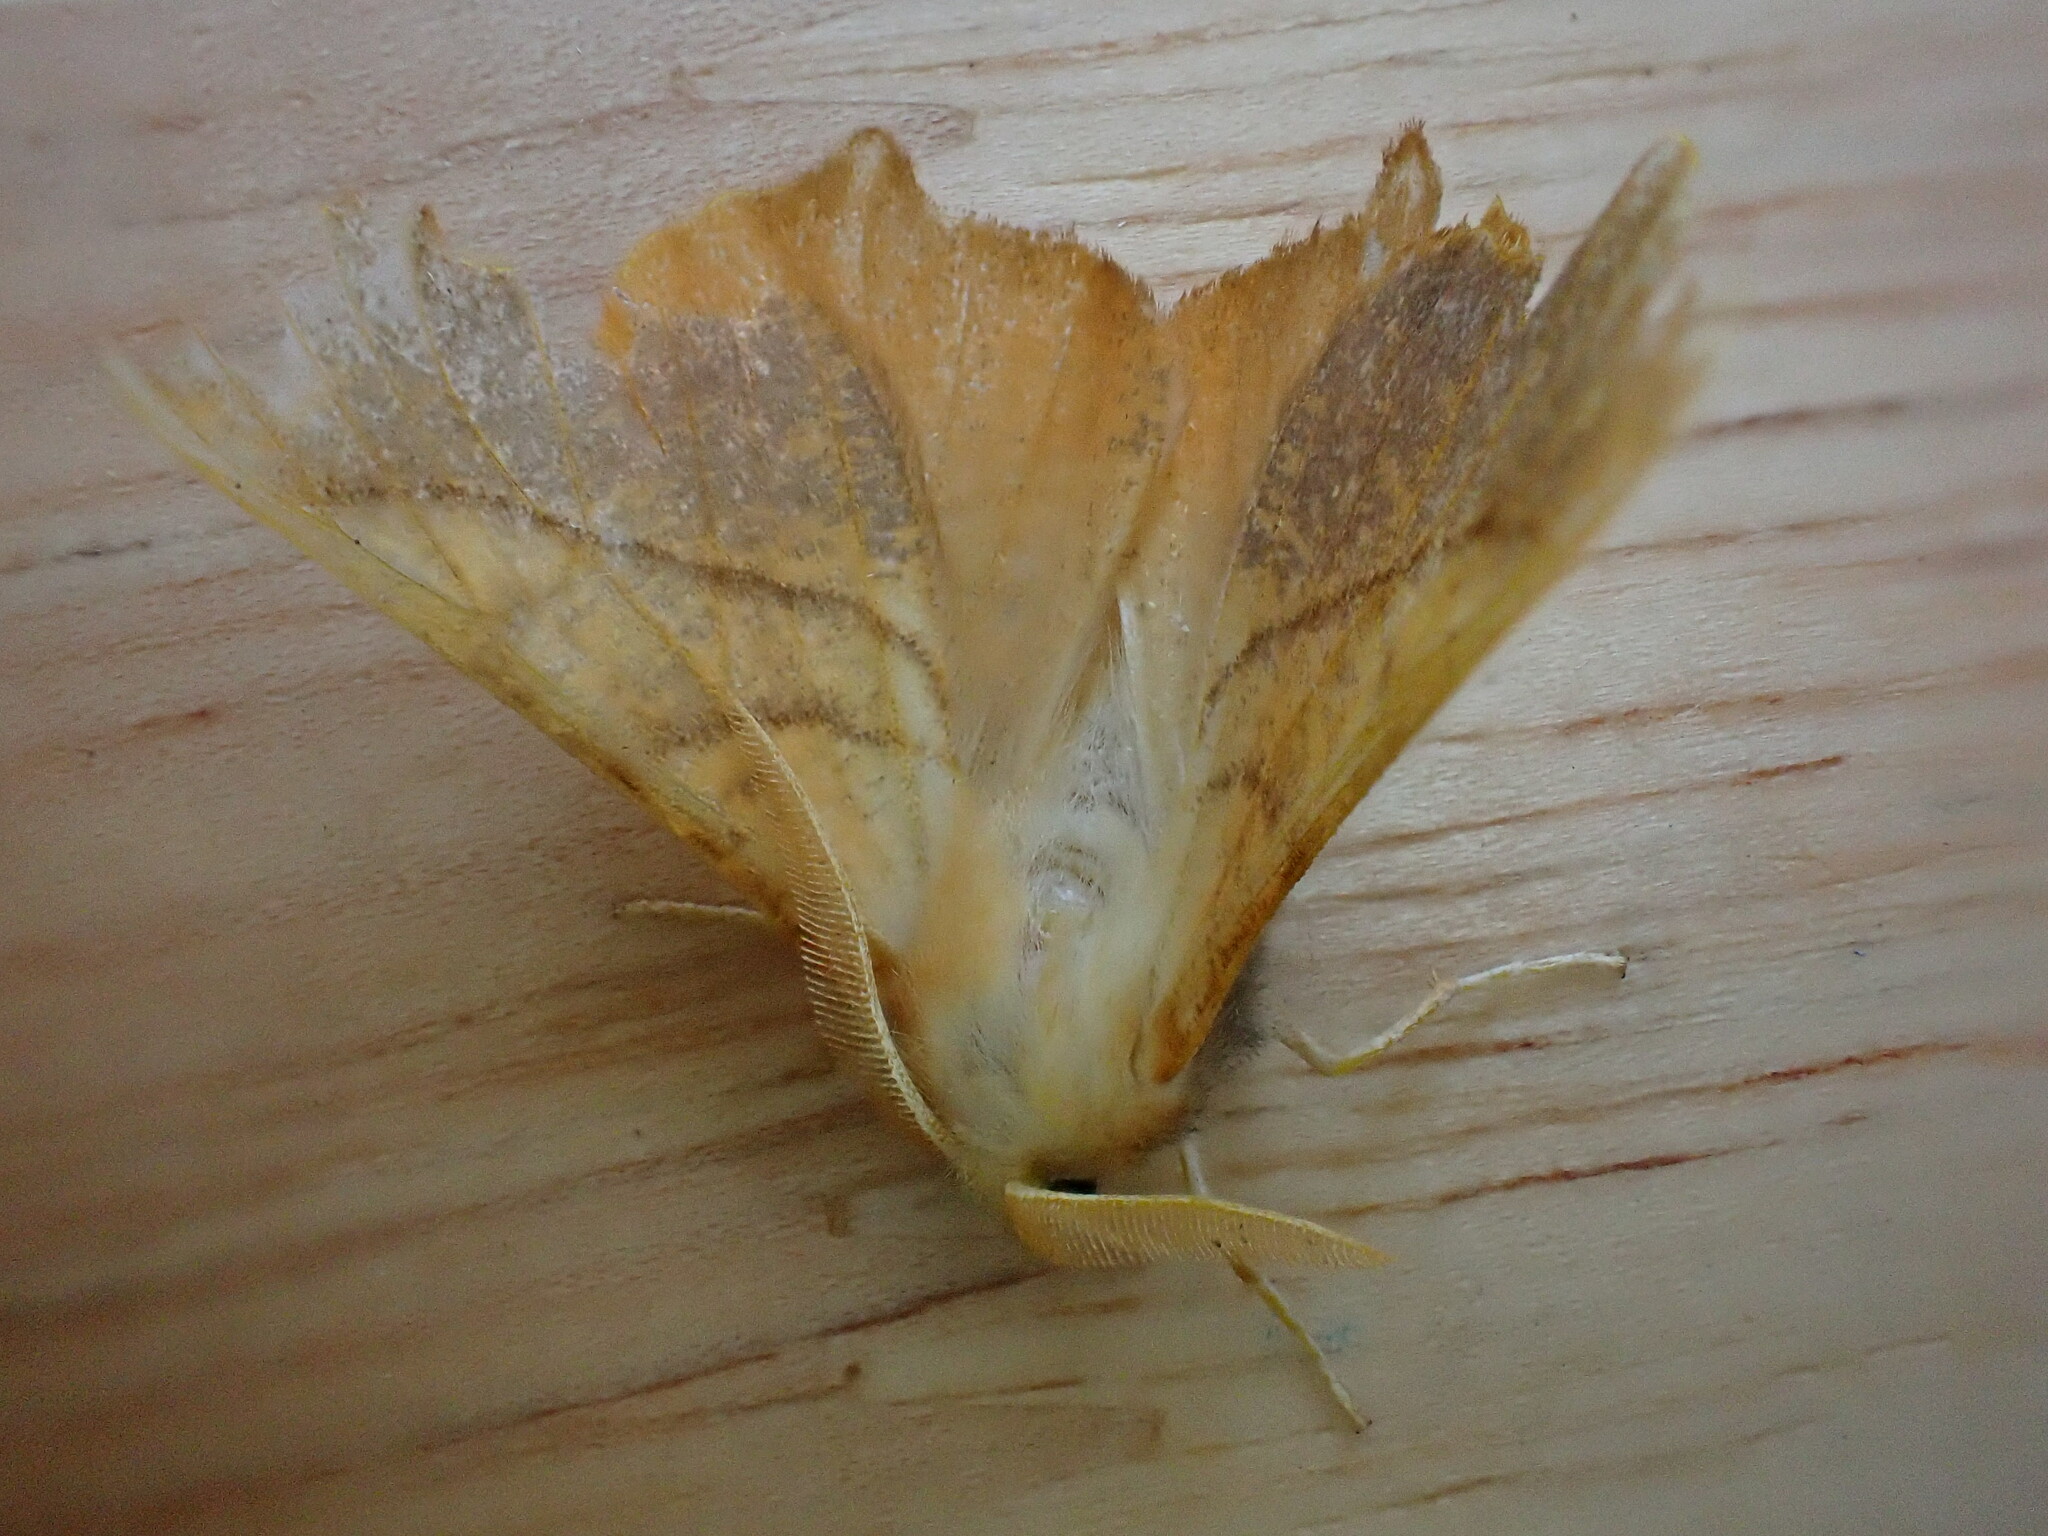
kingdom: Animalia
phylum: Arthropoda
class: Insecta
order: Lepidoptera
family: Geometridae
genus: Ennomos
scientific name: Ennomos fuscantaria
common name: Dusky thorn
